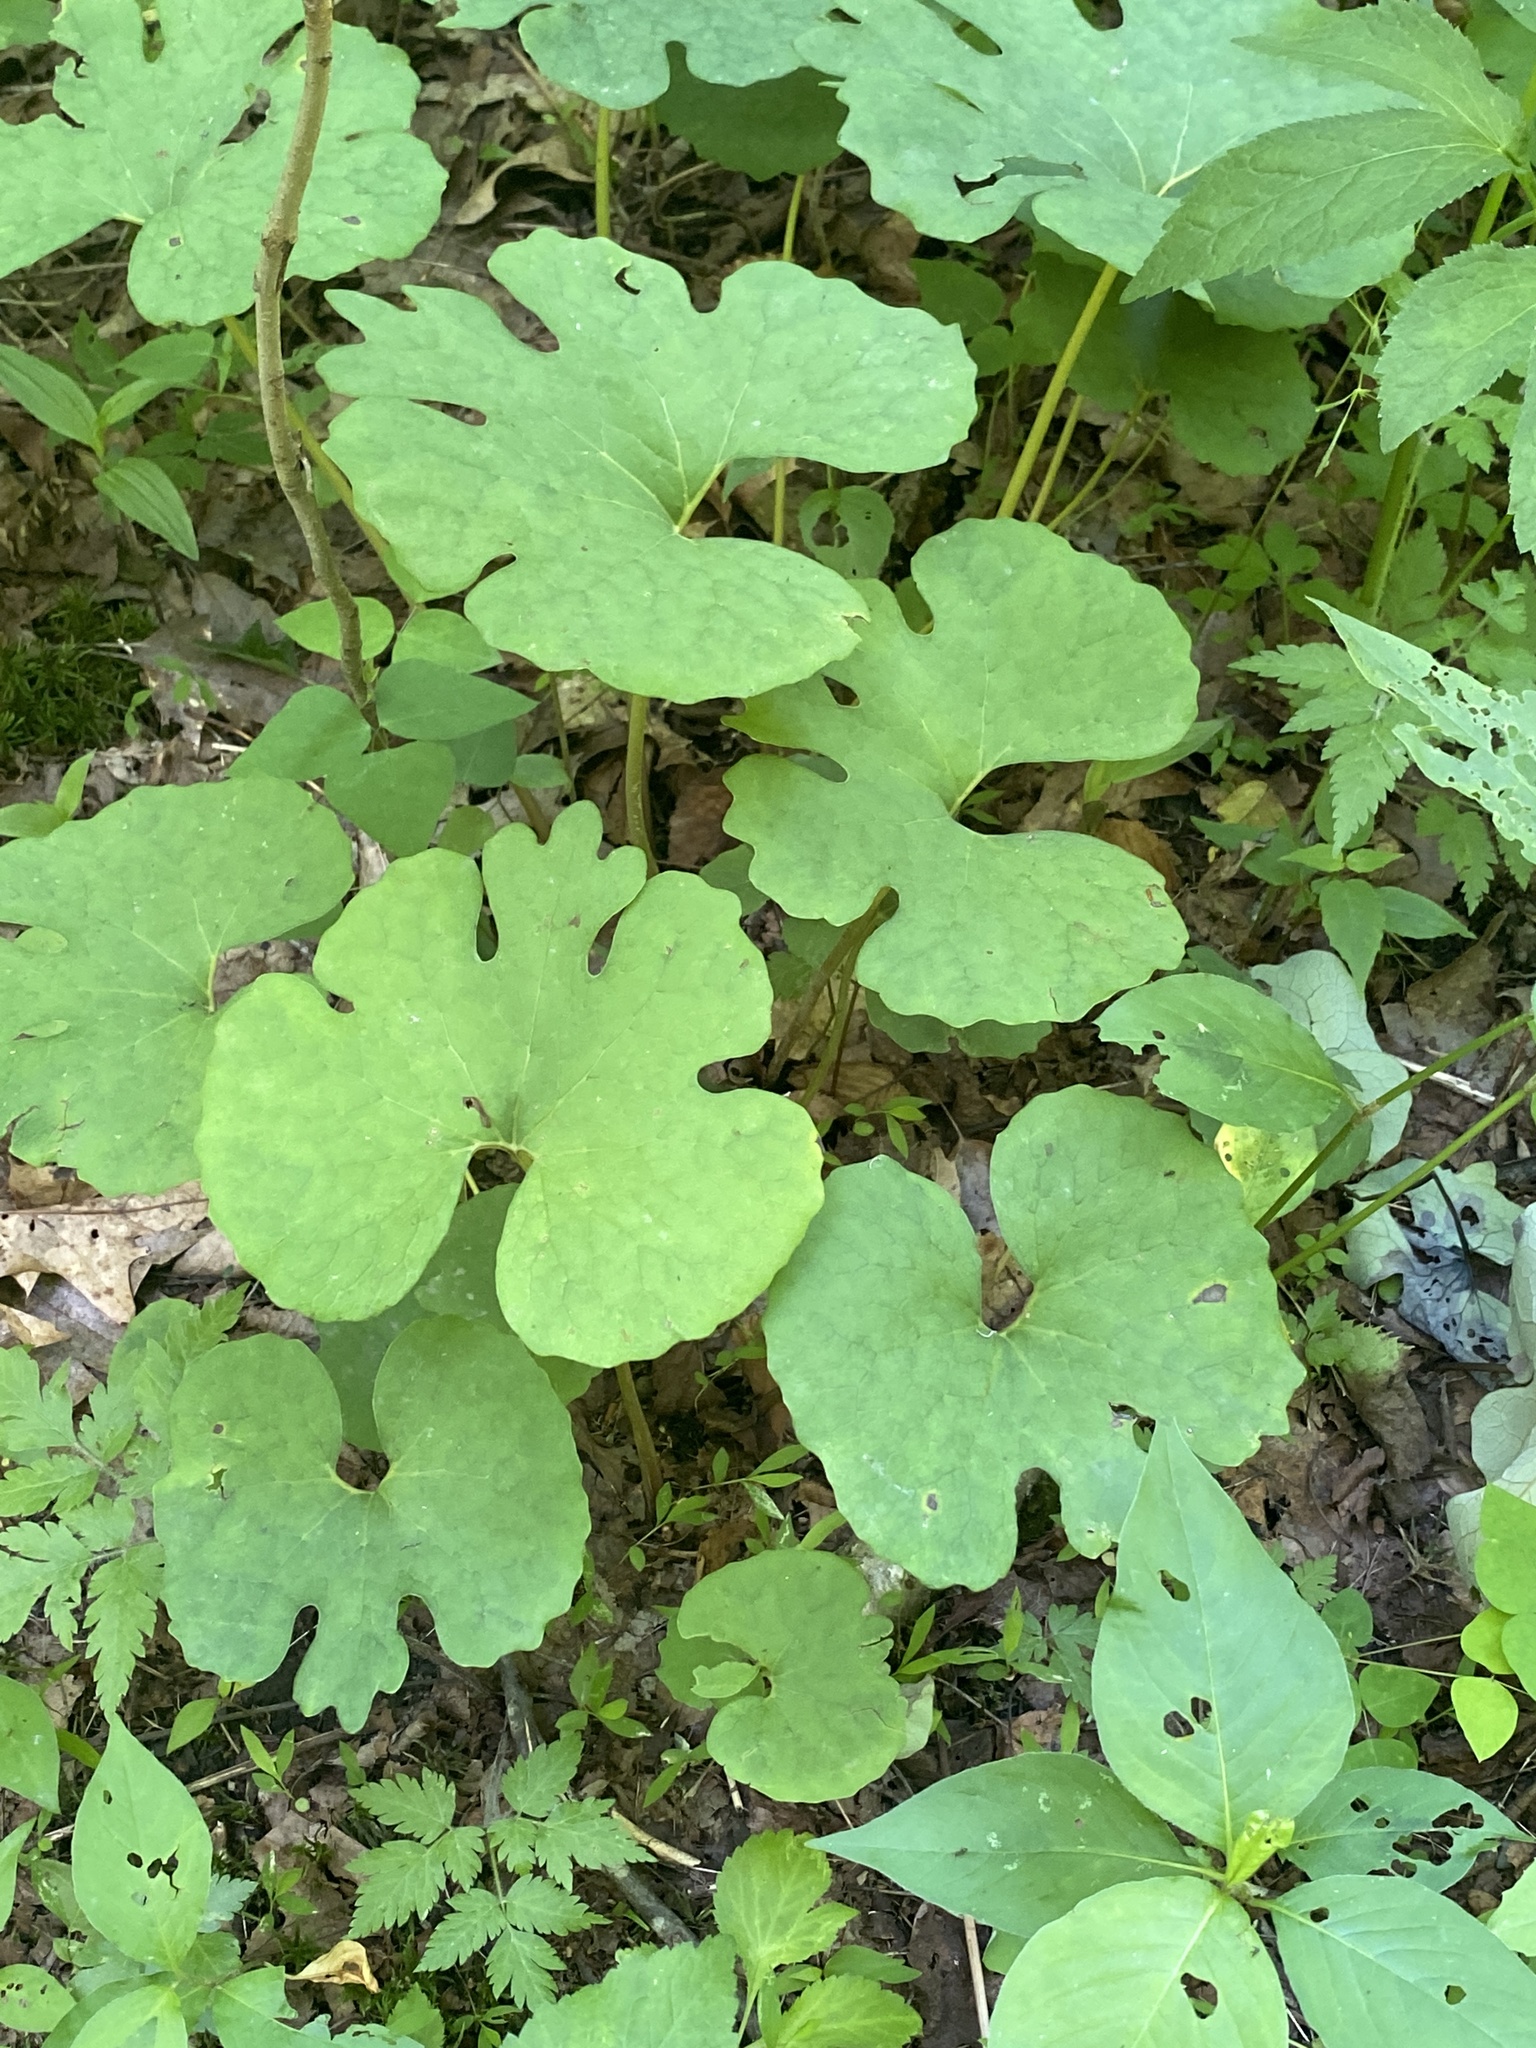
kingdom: Plantae
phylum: Tracheophyta
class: Magnoliopsida
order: Ranunculales
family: Papaveraceae
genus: Sanguinaria
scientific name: Sanguinaria canadensis
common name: Bloodroot
